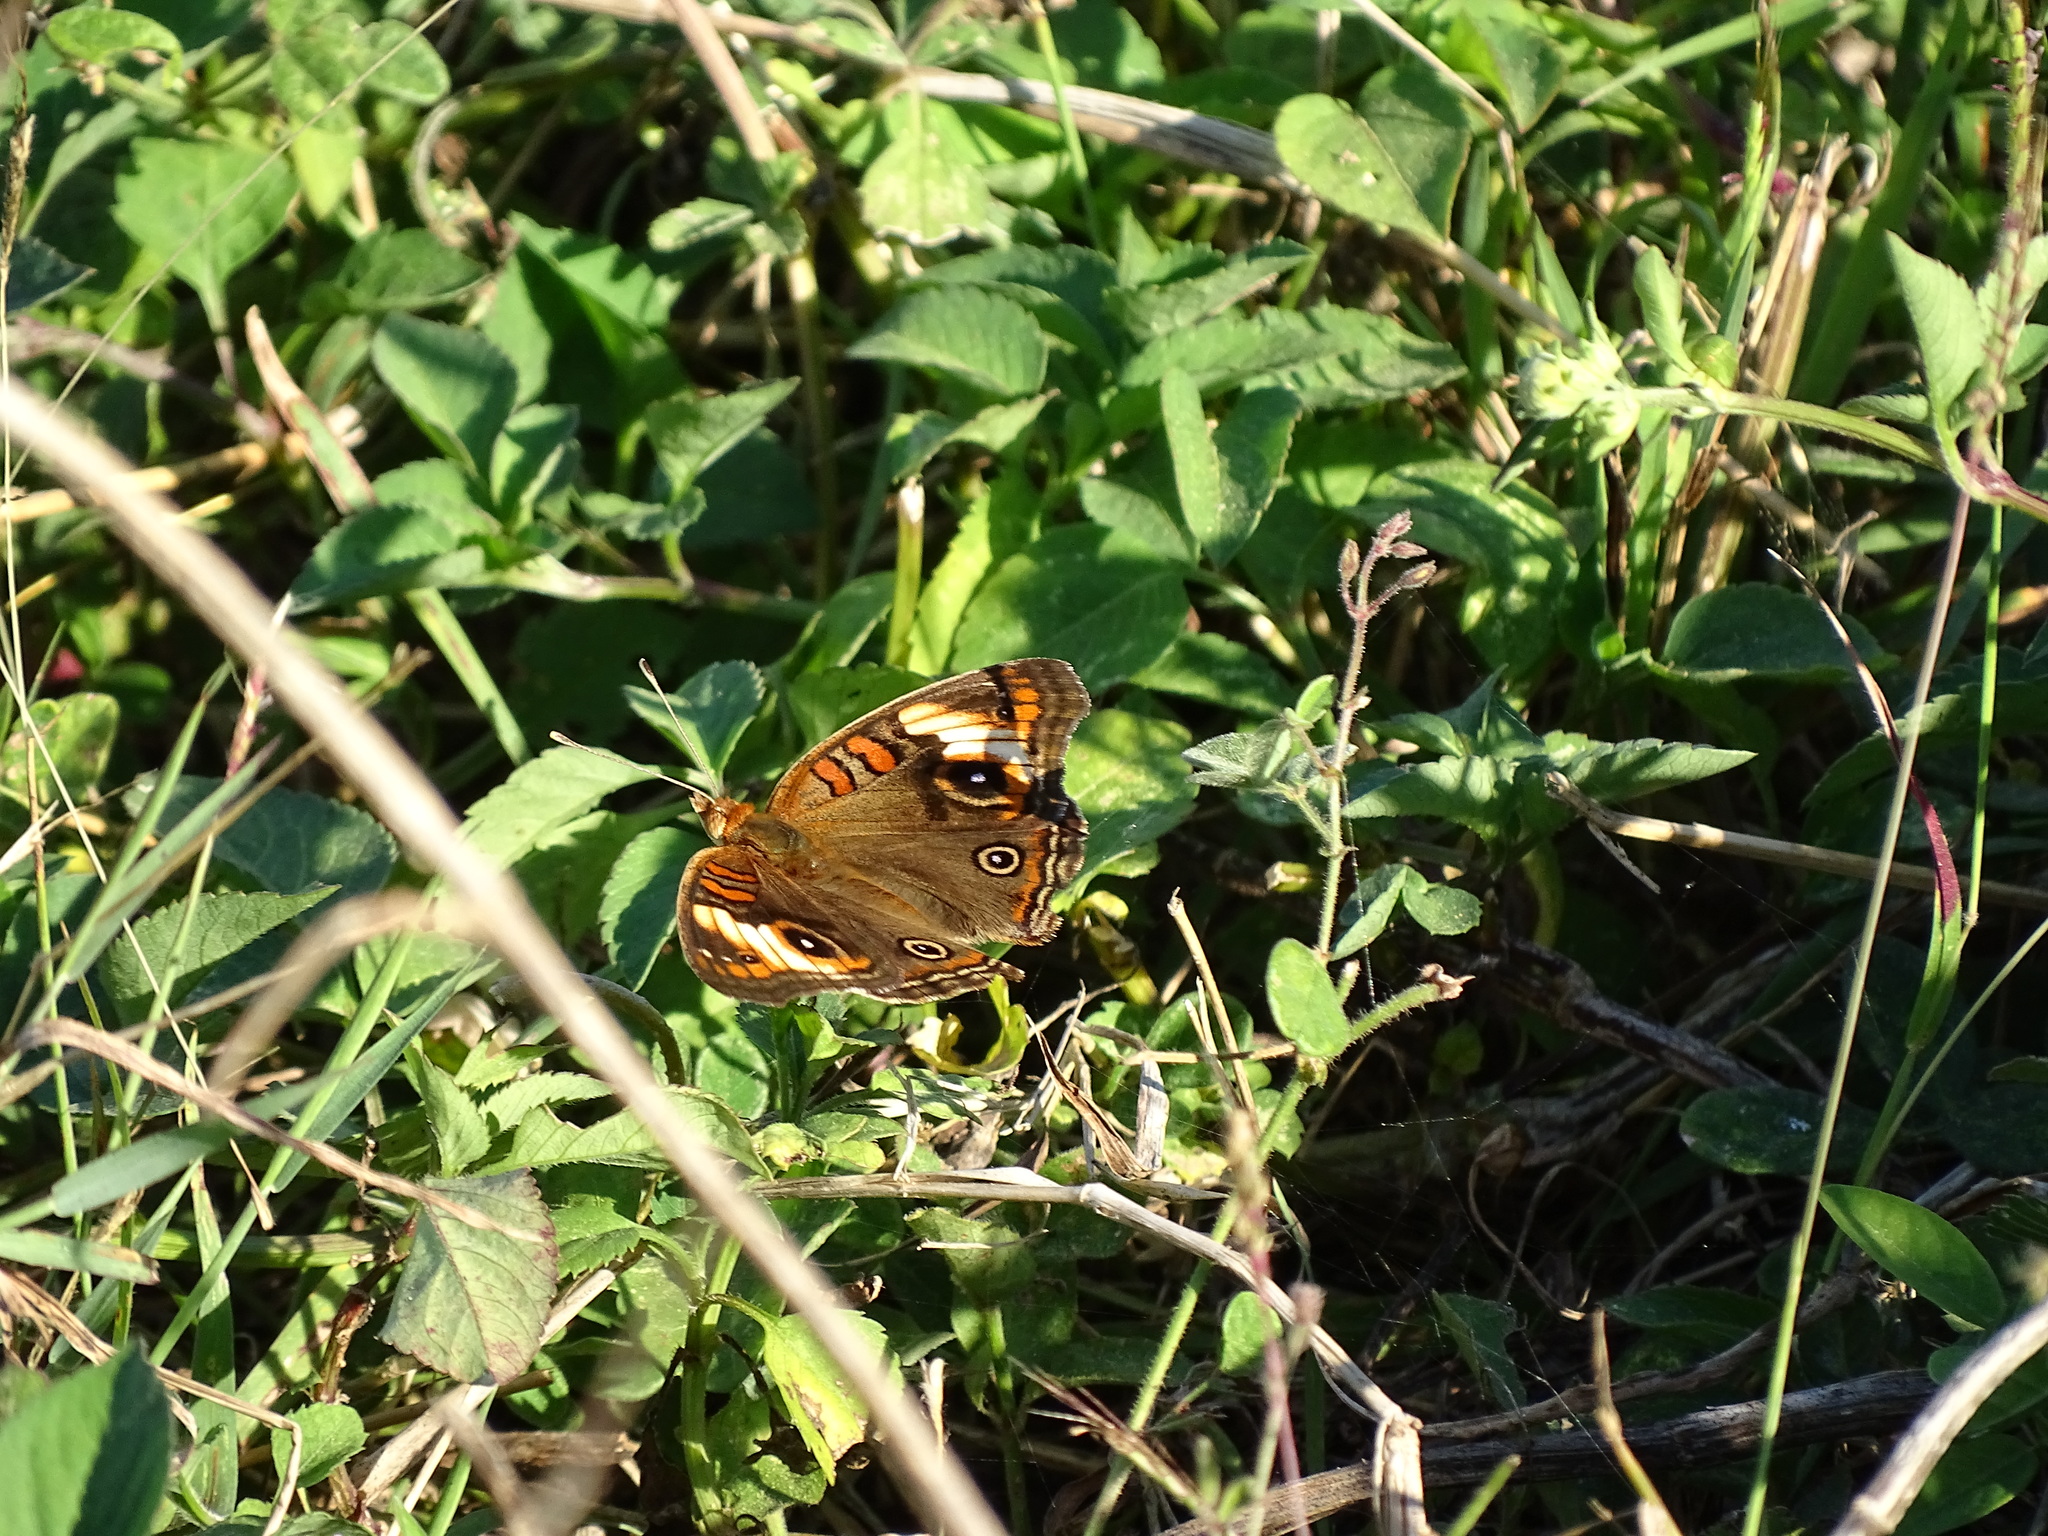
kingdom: Animalia
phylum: Arthropoda
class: Insecta
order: Lepidoptera
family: Nymphalidae
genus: Junonia
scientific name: Junonia lavinia
